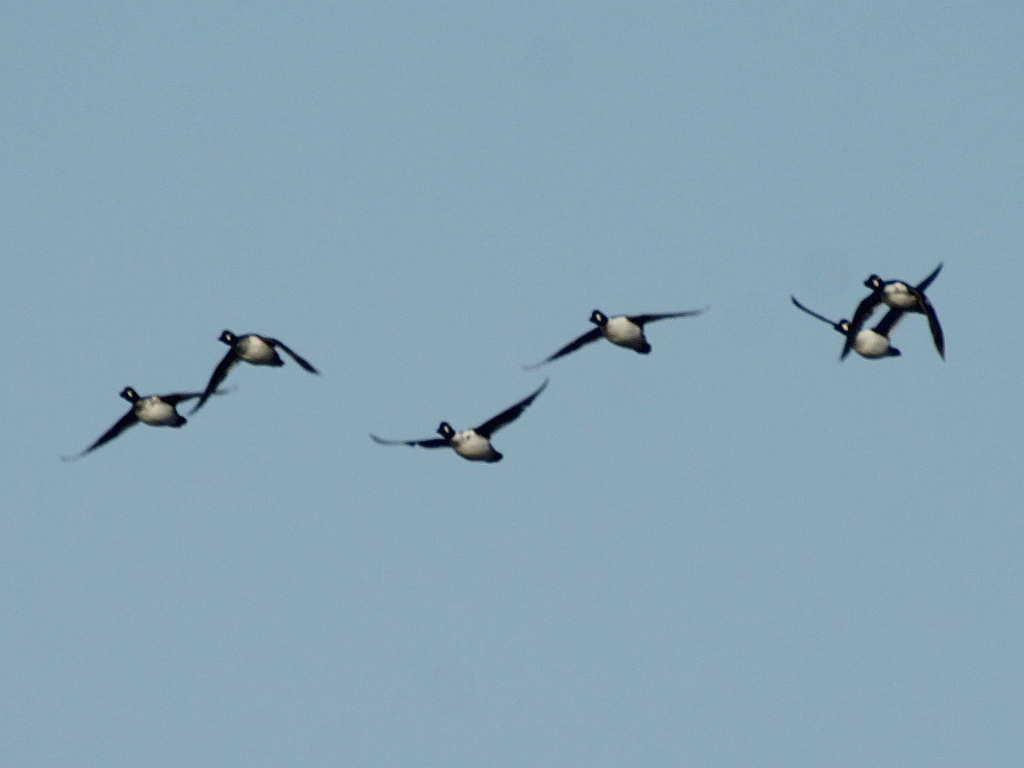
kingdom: Animalia
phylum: Chordata
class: Aves
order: Anseriformes
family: Anatidae
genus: Bucephala
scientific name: Bucephala clangula
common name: Common goldeneye
